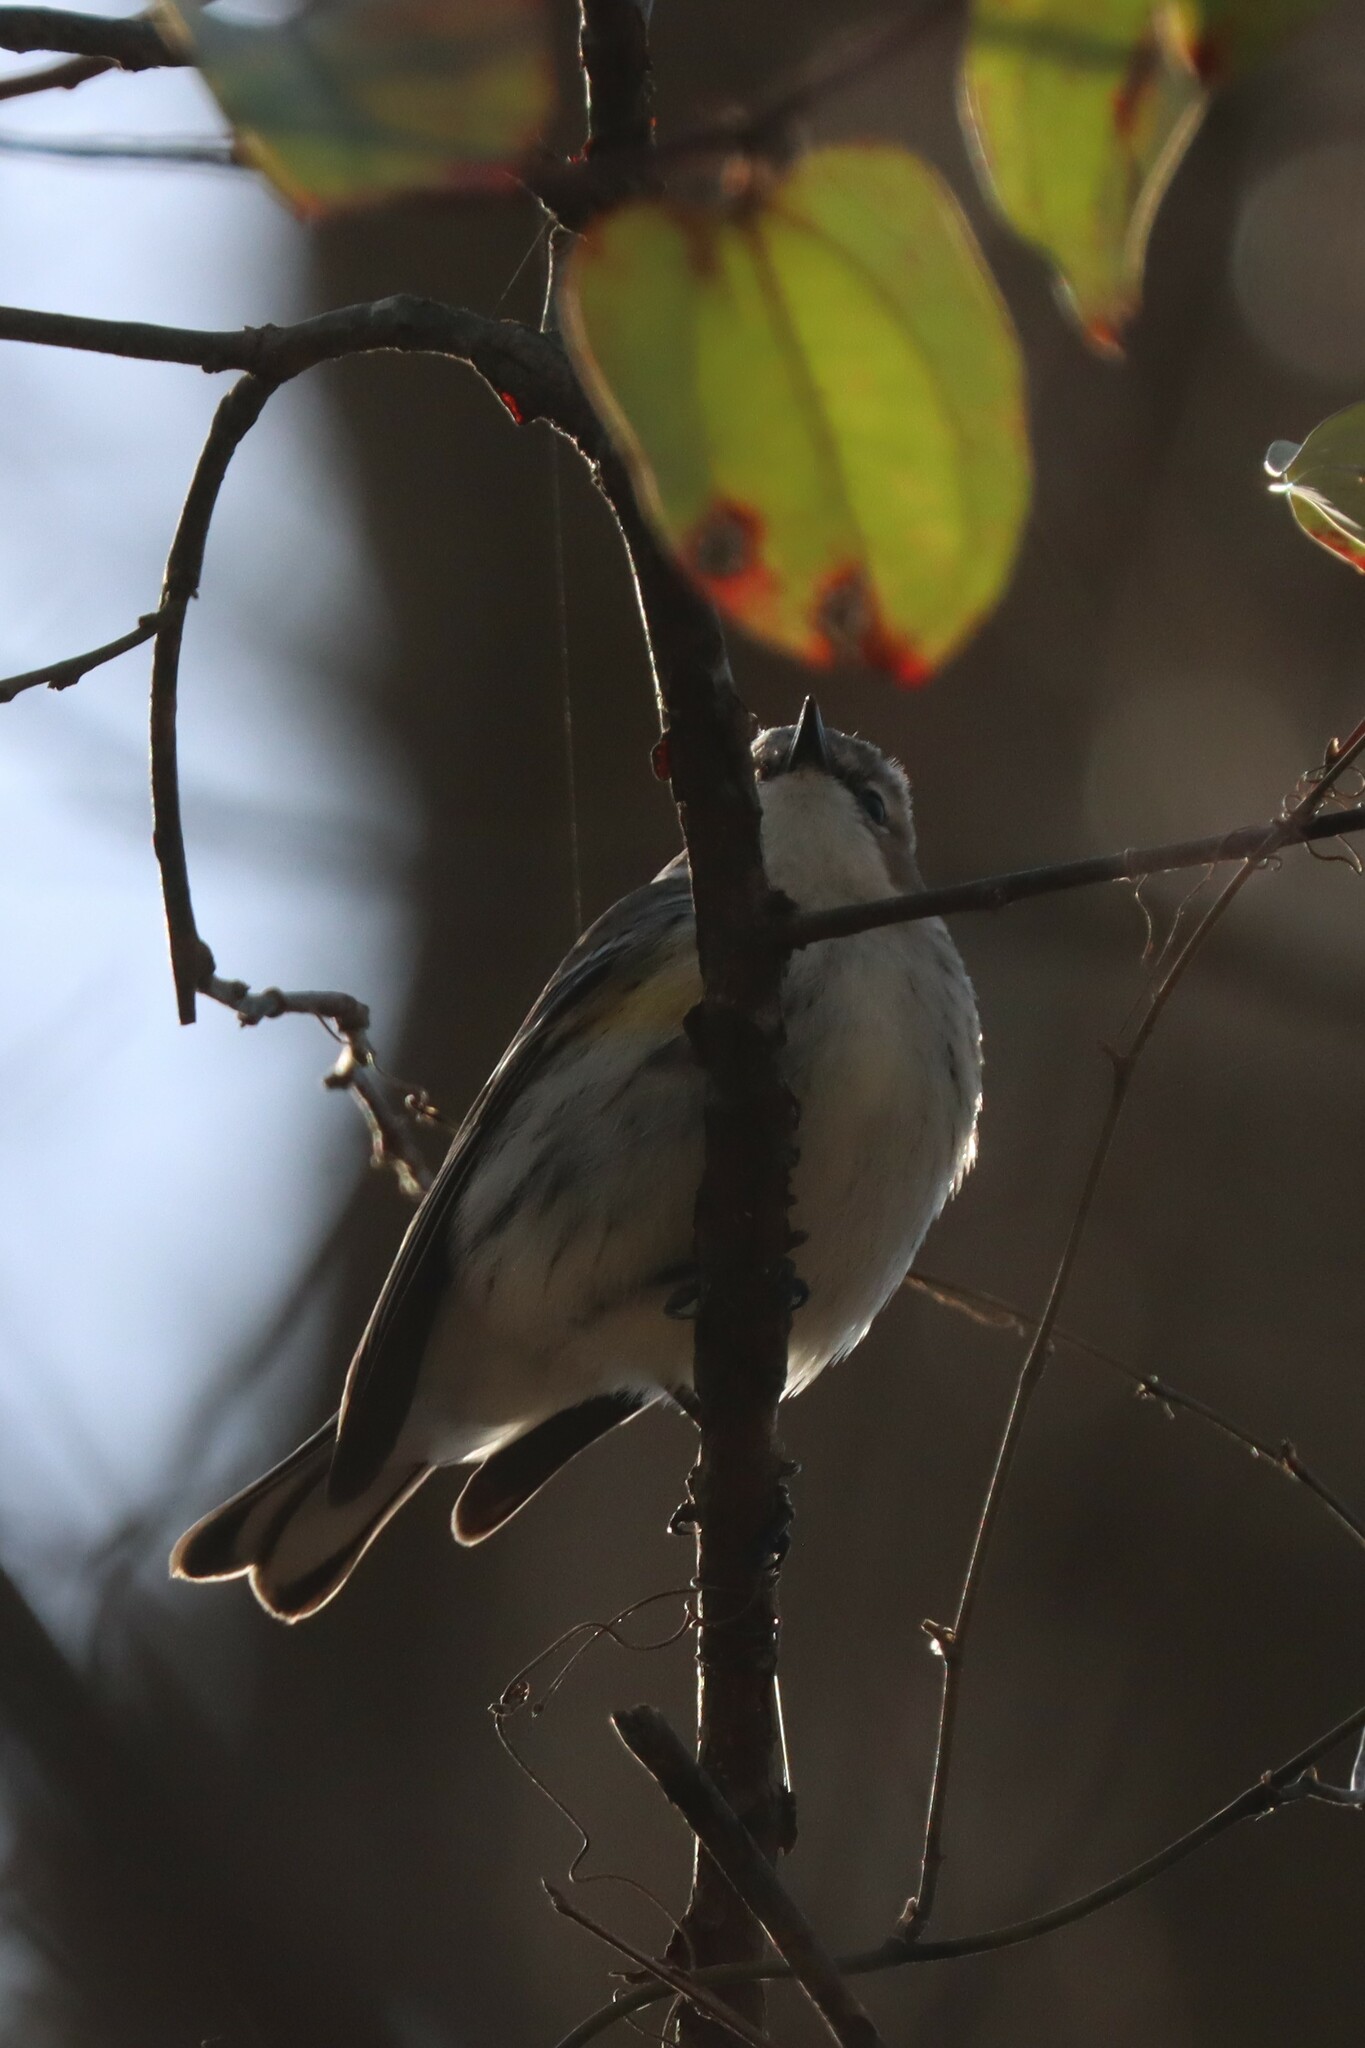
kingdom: Animalia
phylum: Chordata
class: Aves
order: Passeriformes
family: Parulidae
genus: Setophaga
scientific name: Setophaga coronata
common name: Myrtle warbler
